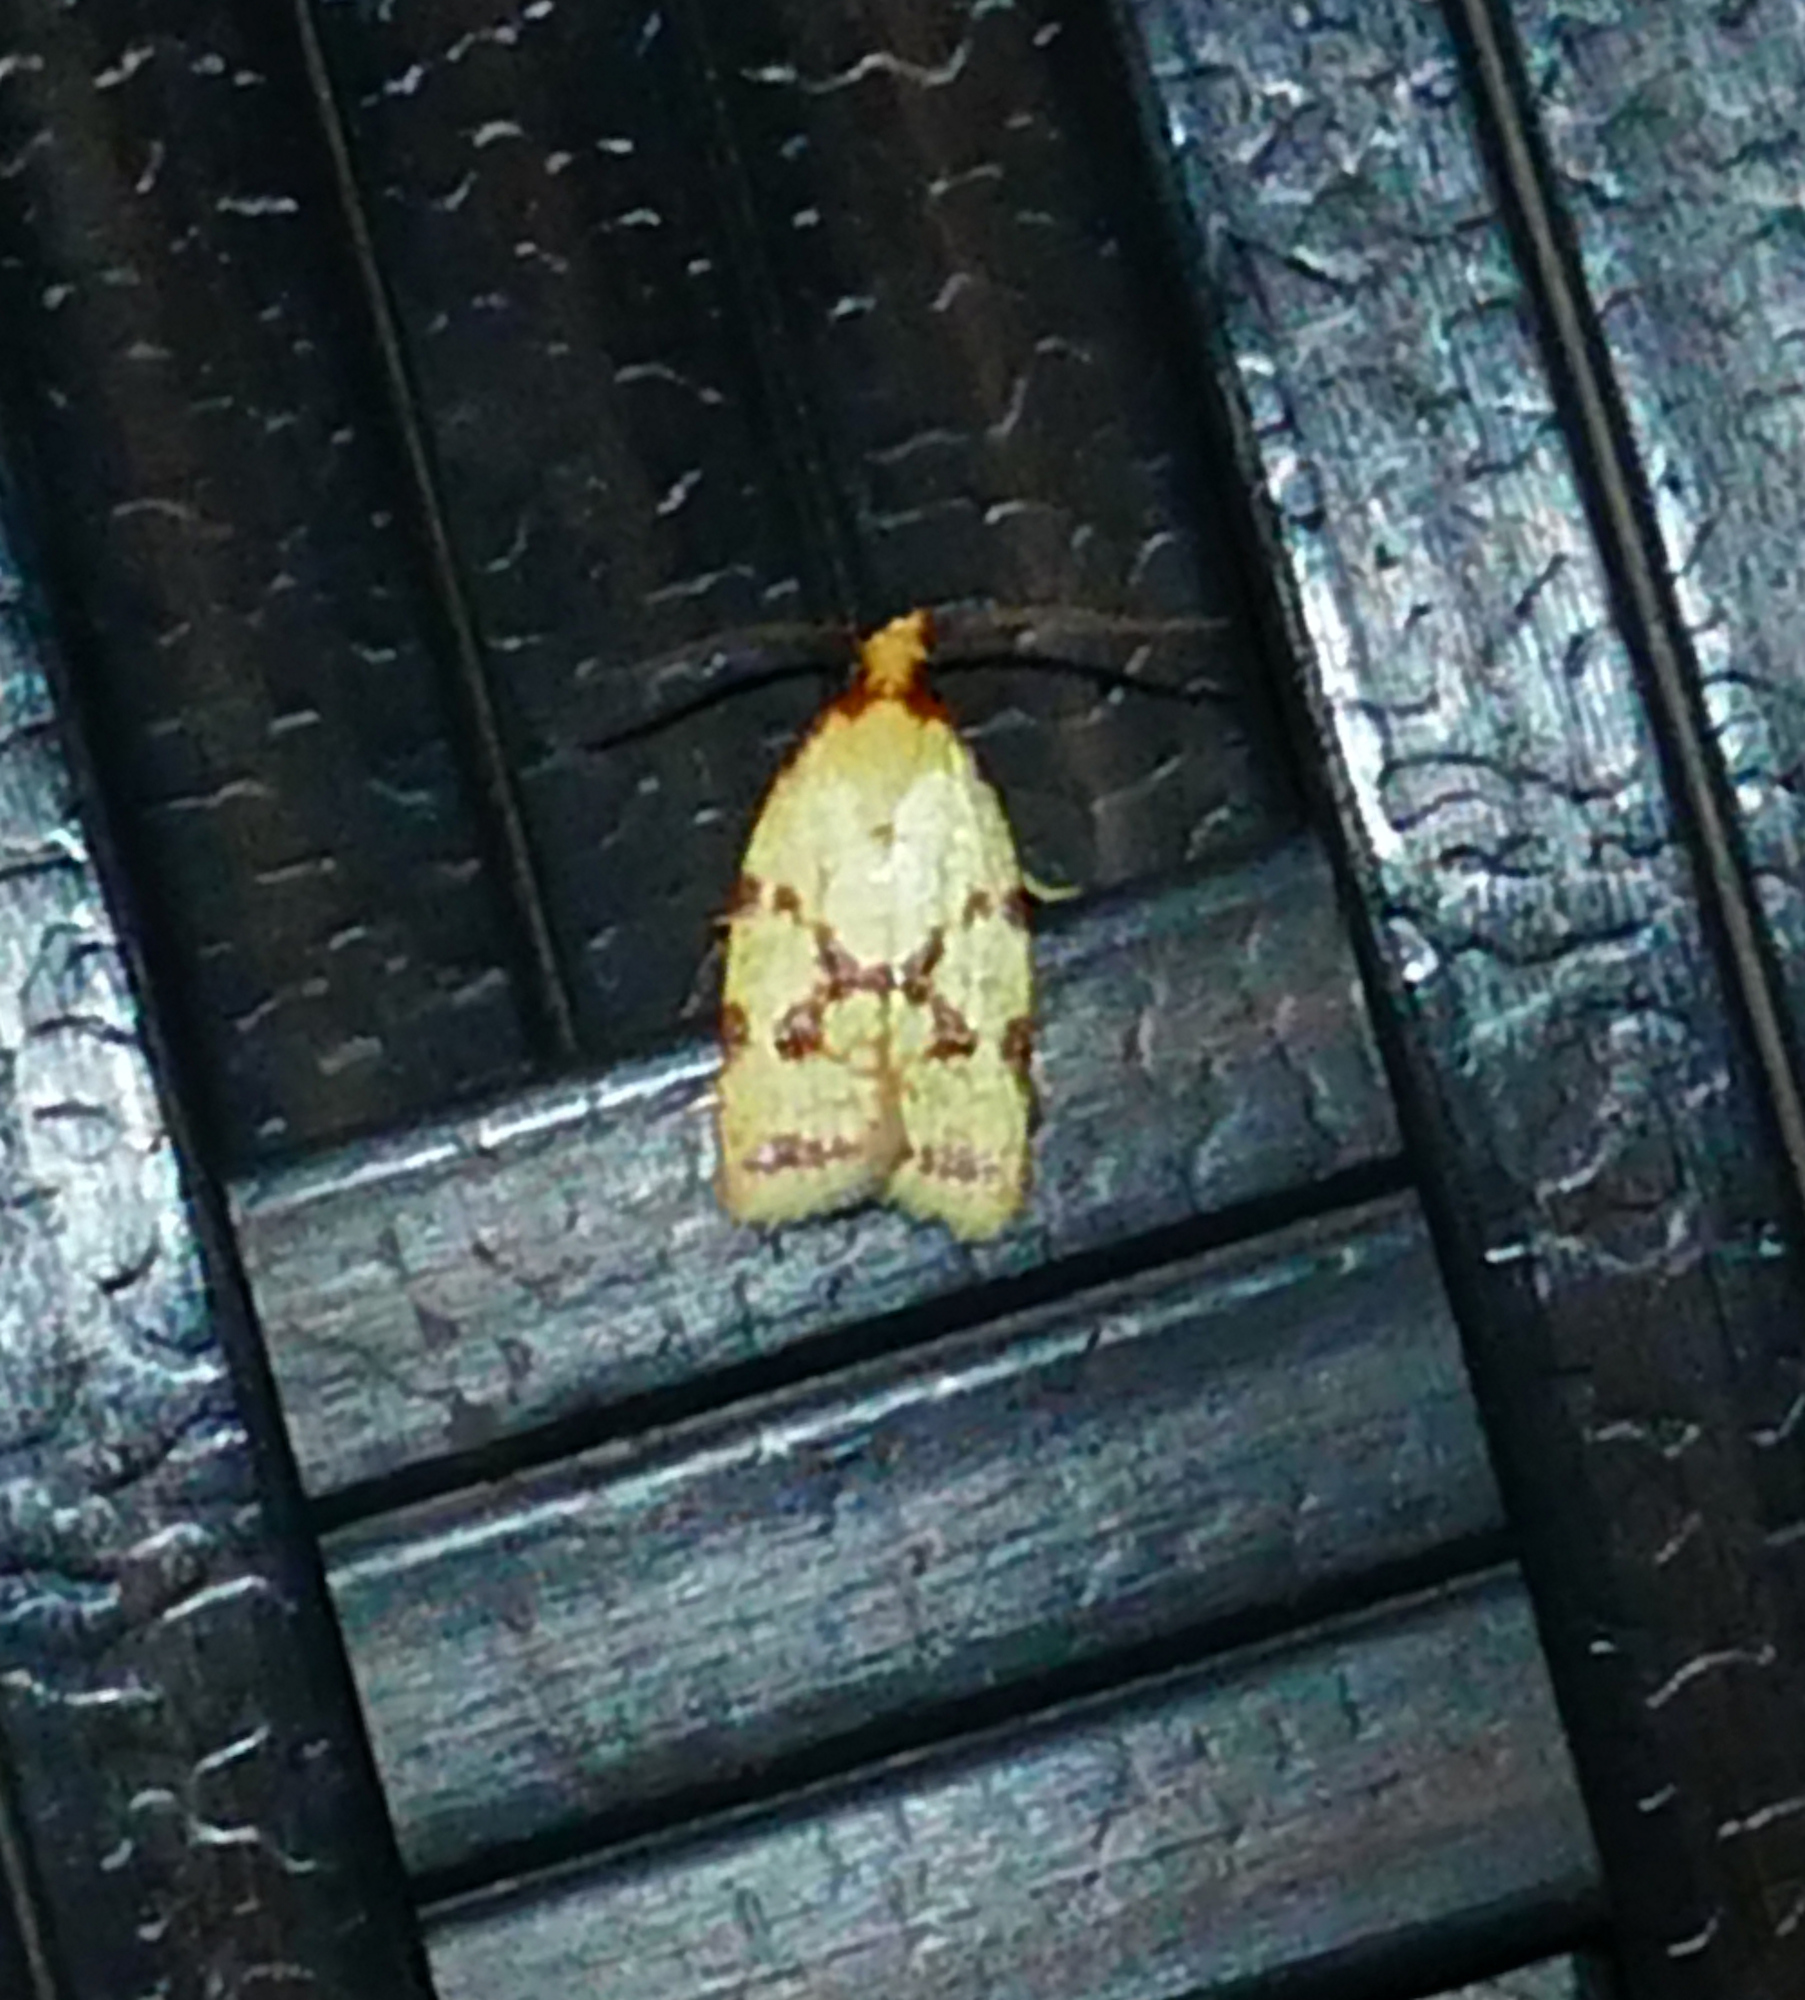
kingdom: Animalia
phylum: Arthropoda
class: Insecta
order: Lepidoptera
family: Tortricidae
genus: Sparganothis
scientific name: Sparganothis sulfureana
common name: Sparganothis fruitworm moth
